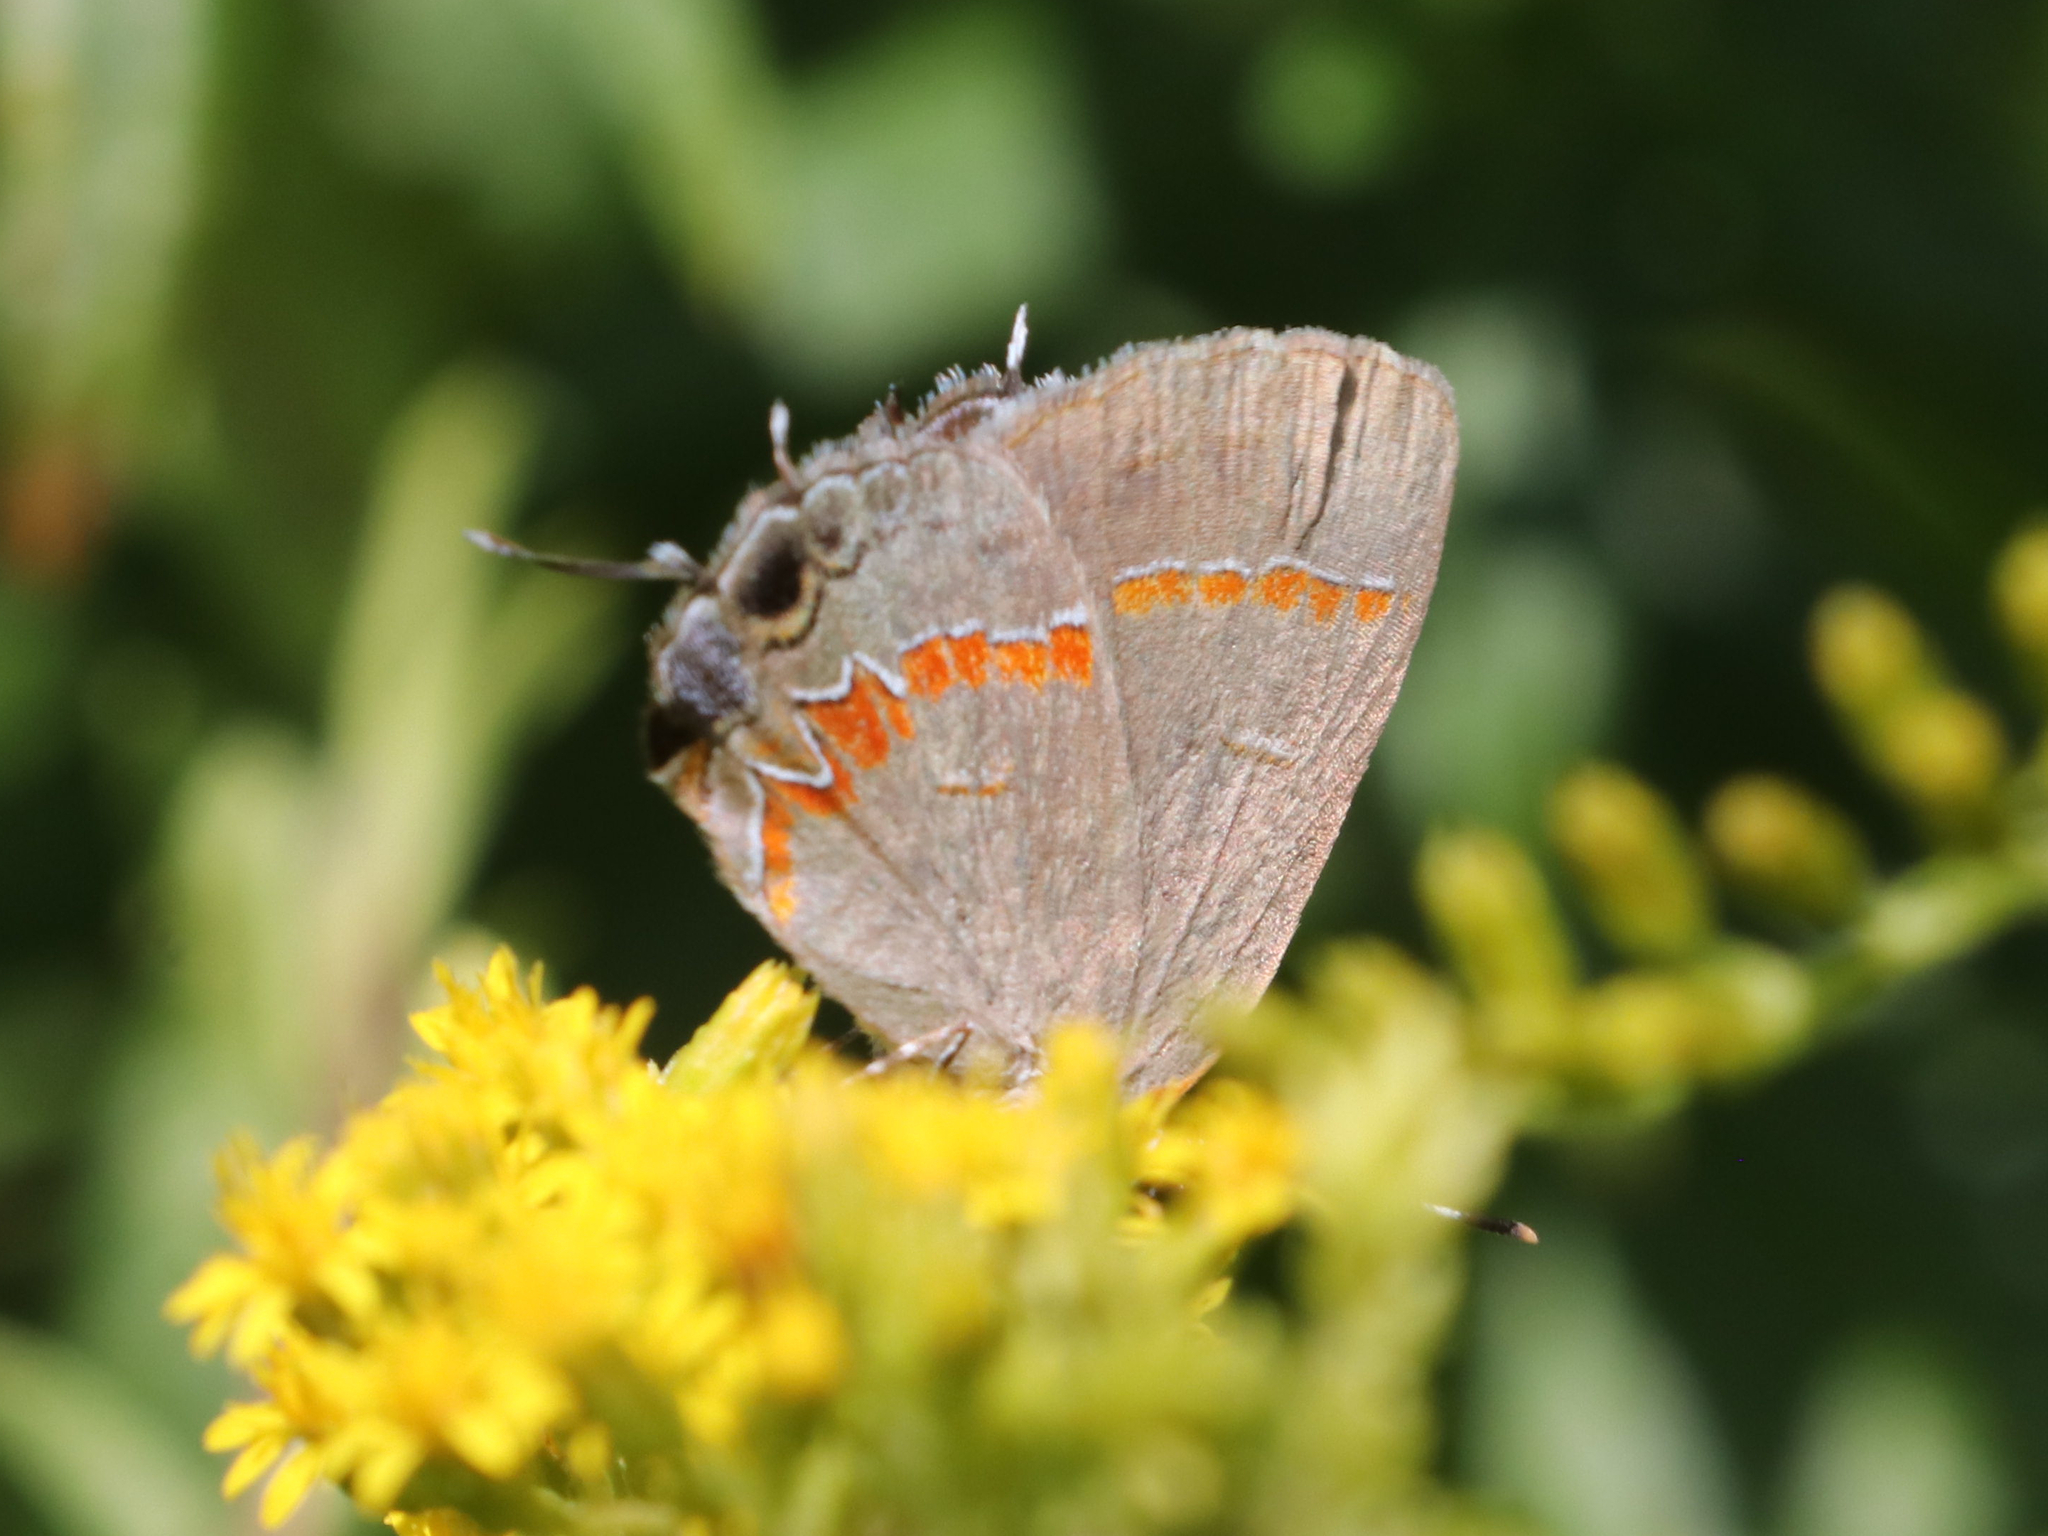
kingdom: Animalia
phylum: Arthropoda
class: Insecta
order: Lepidoptera
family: Lycaenidae
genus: Calycopis
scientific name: Calycopis cecrops
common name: Red-banded hairstreak
